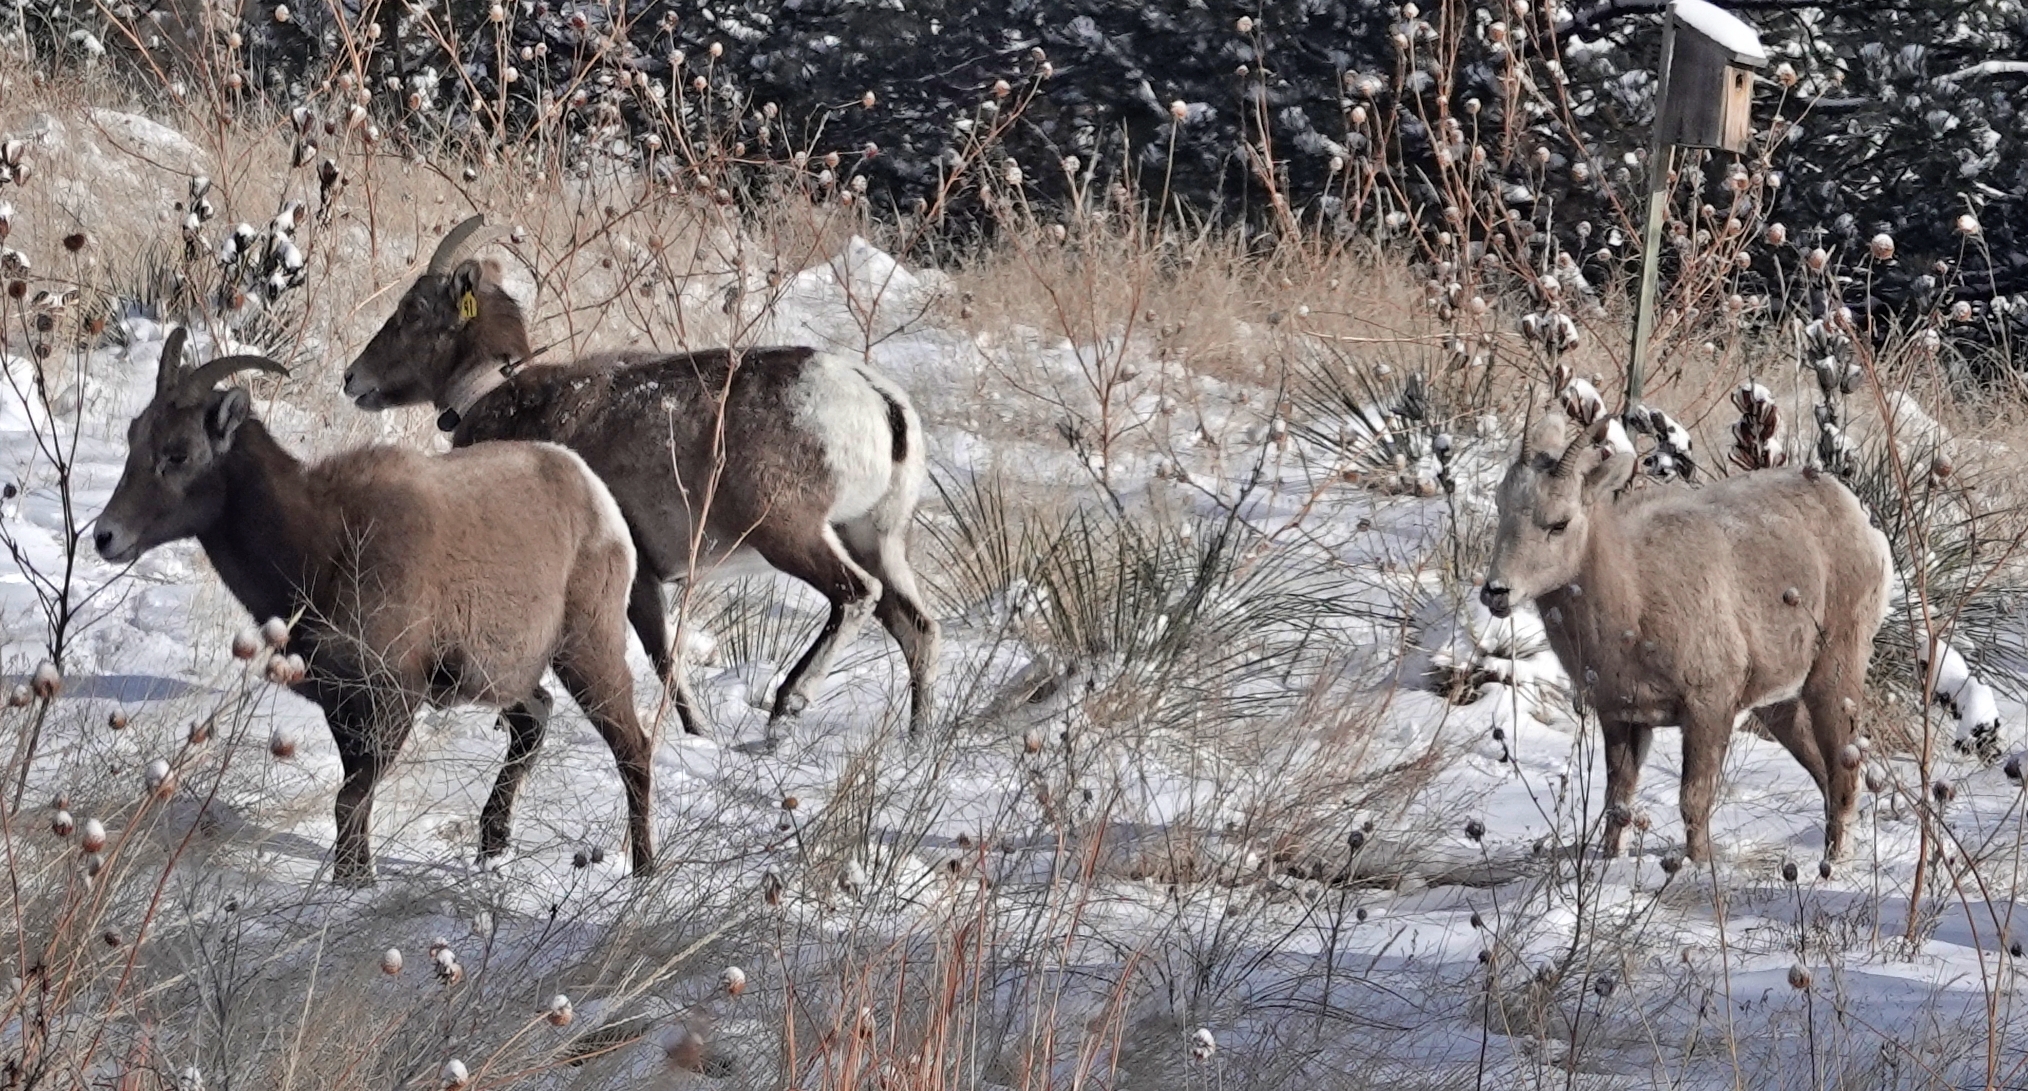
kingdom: Animalia
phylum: Chordata
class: Mammalia
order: Artiodactyla
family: Bovidae
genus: Ovis
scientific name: Ovis canadensis
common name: Bighorn sheep
